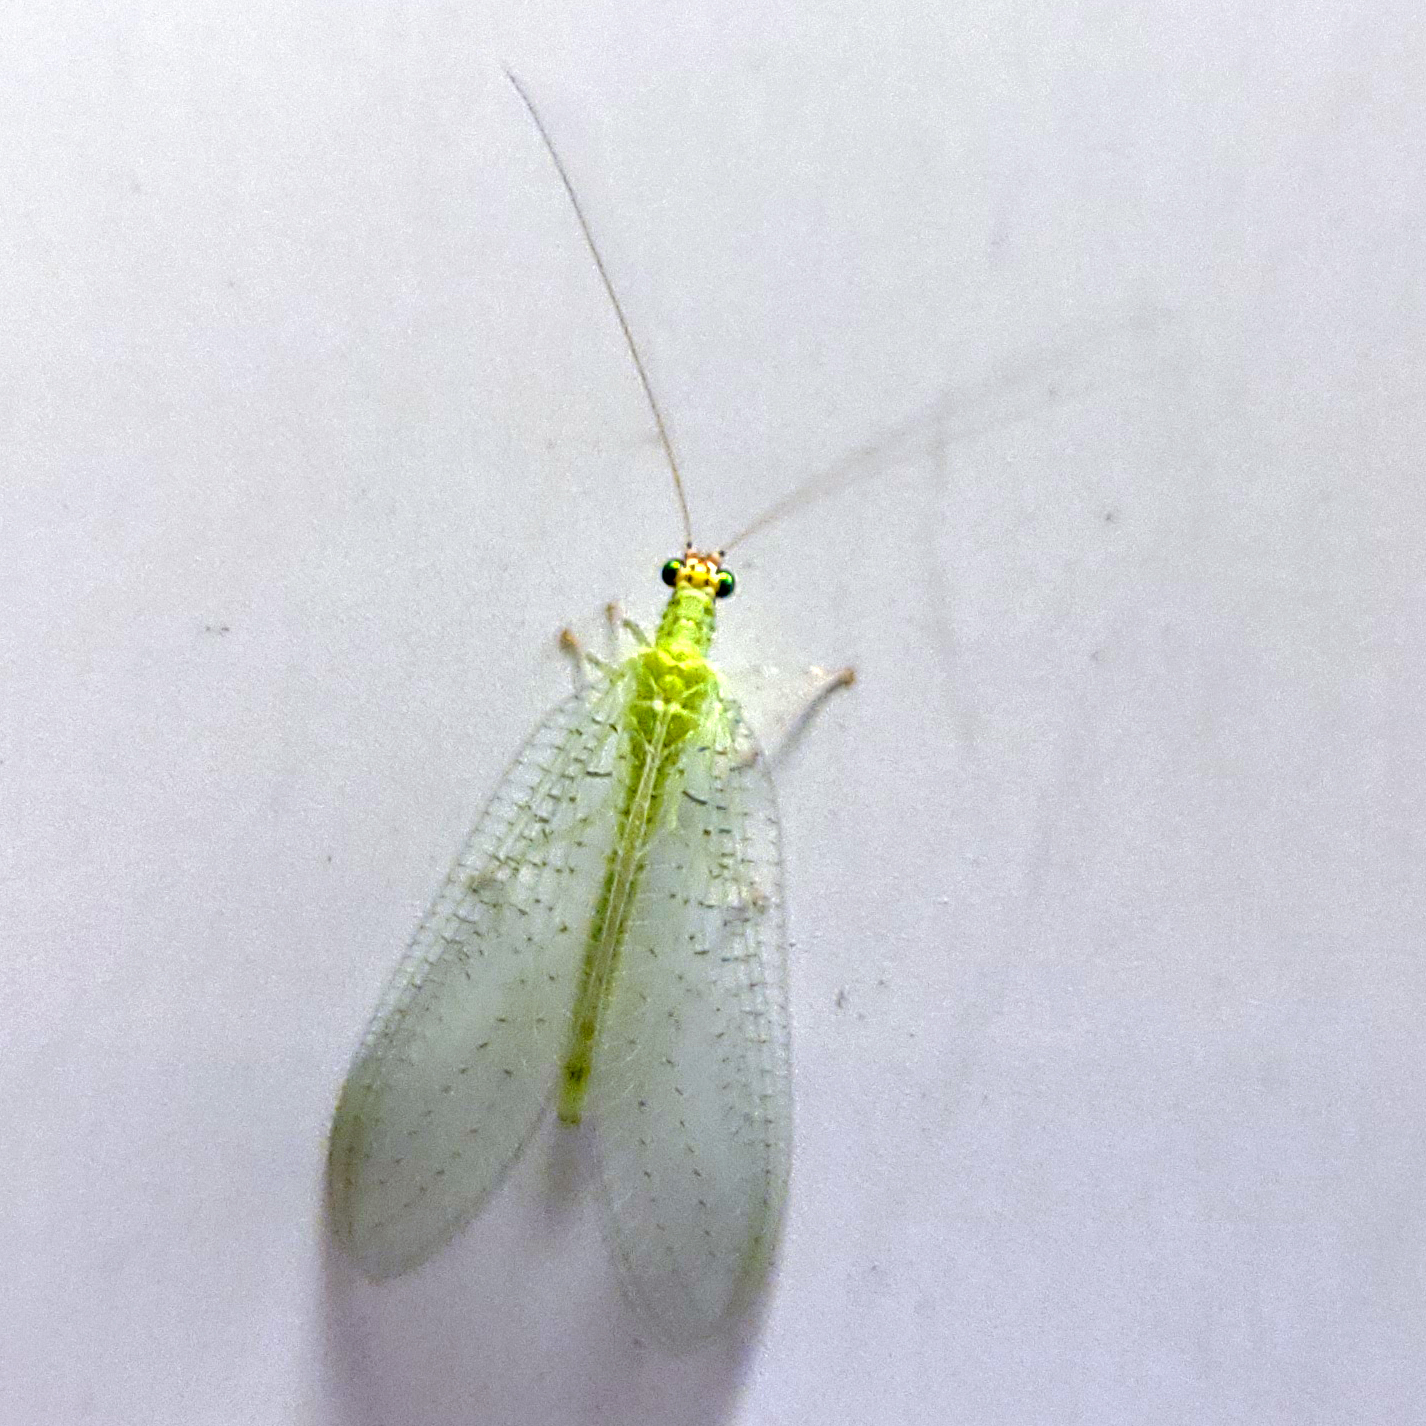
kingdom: Animalia
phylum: Arthropoda
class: Insecta
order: Neuroptera
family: Chrysopidae
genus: Chrysopa
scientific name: Chrysopa oculata
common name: Golden-eyed lacewing
